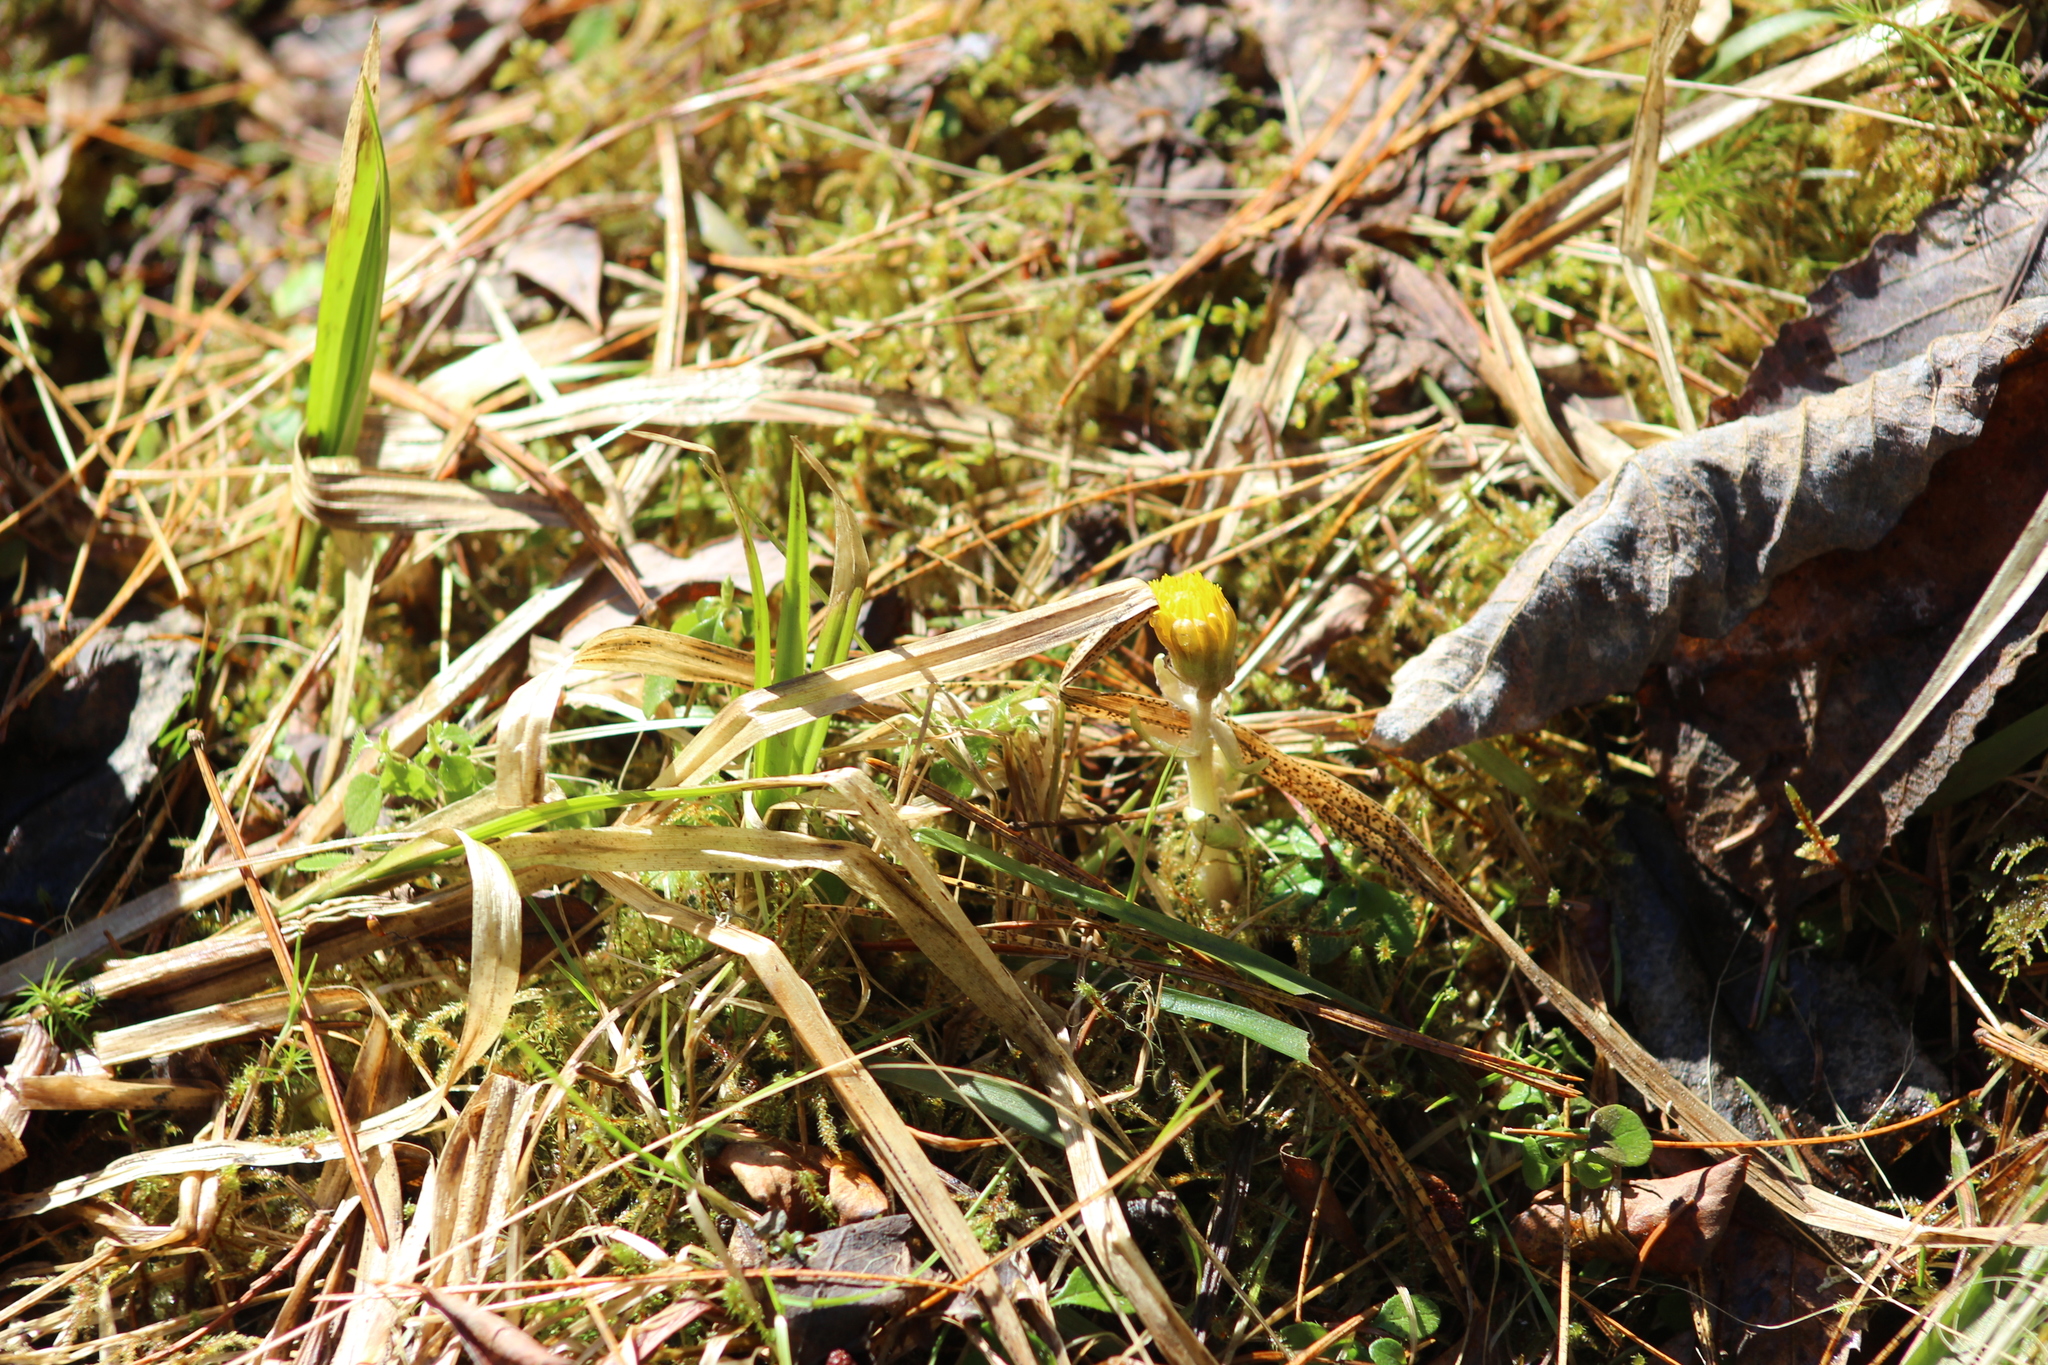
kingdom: Plantae
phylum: Tracheophyta
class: Magnoliopsida
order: Asterales
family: Asteraceae
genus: Tussilago
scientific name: Tussilago farfara
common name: Coltsfoot
